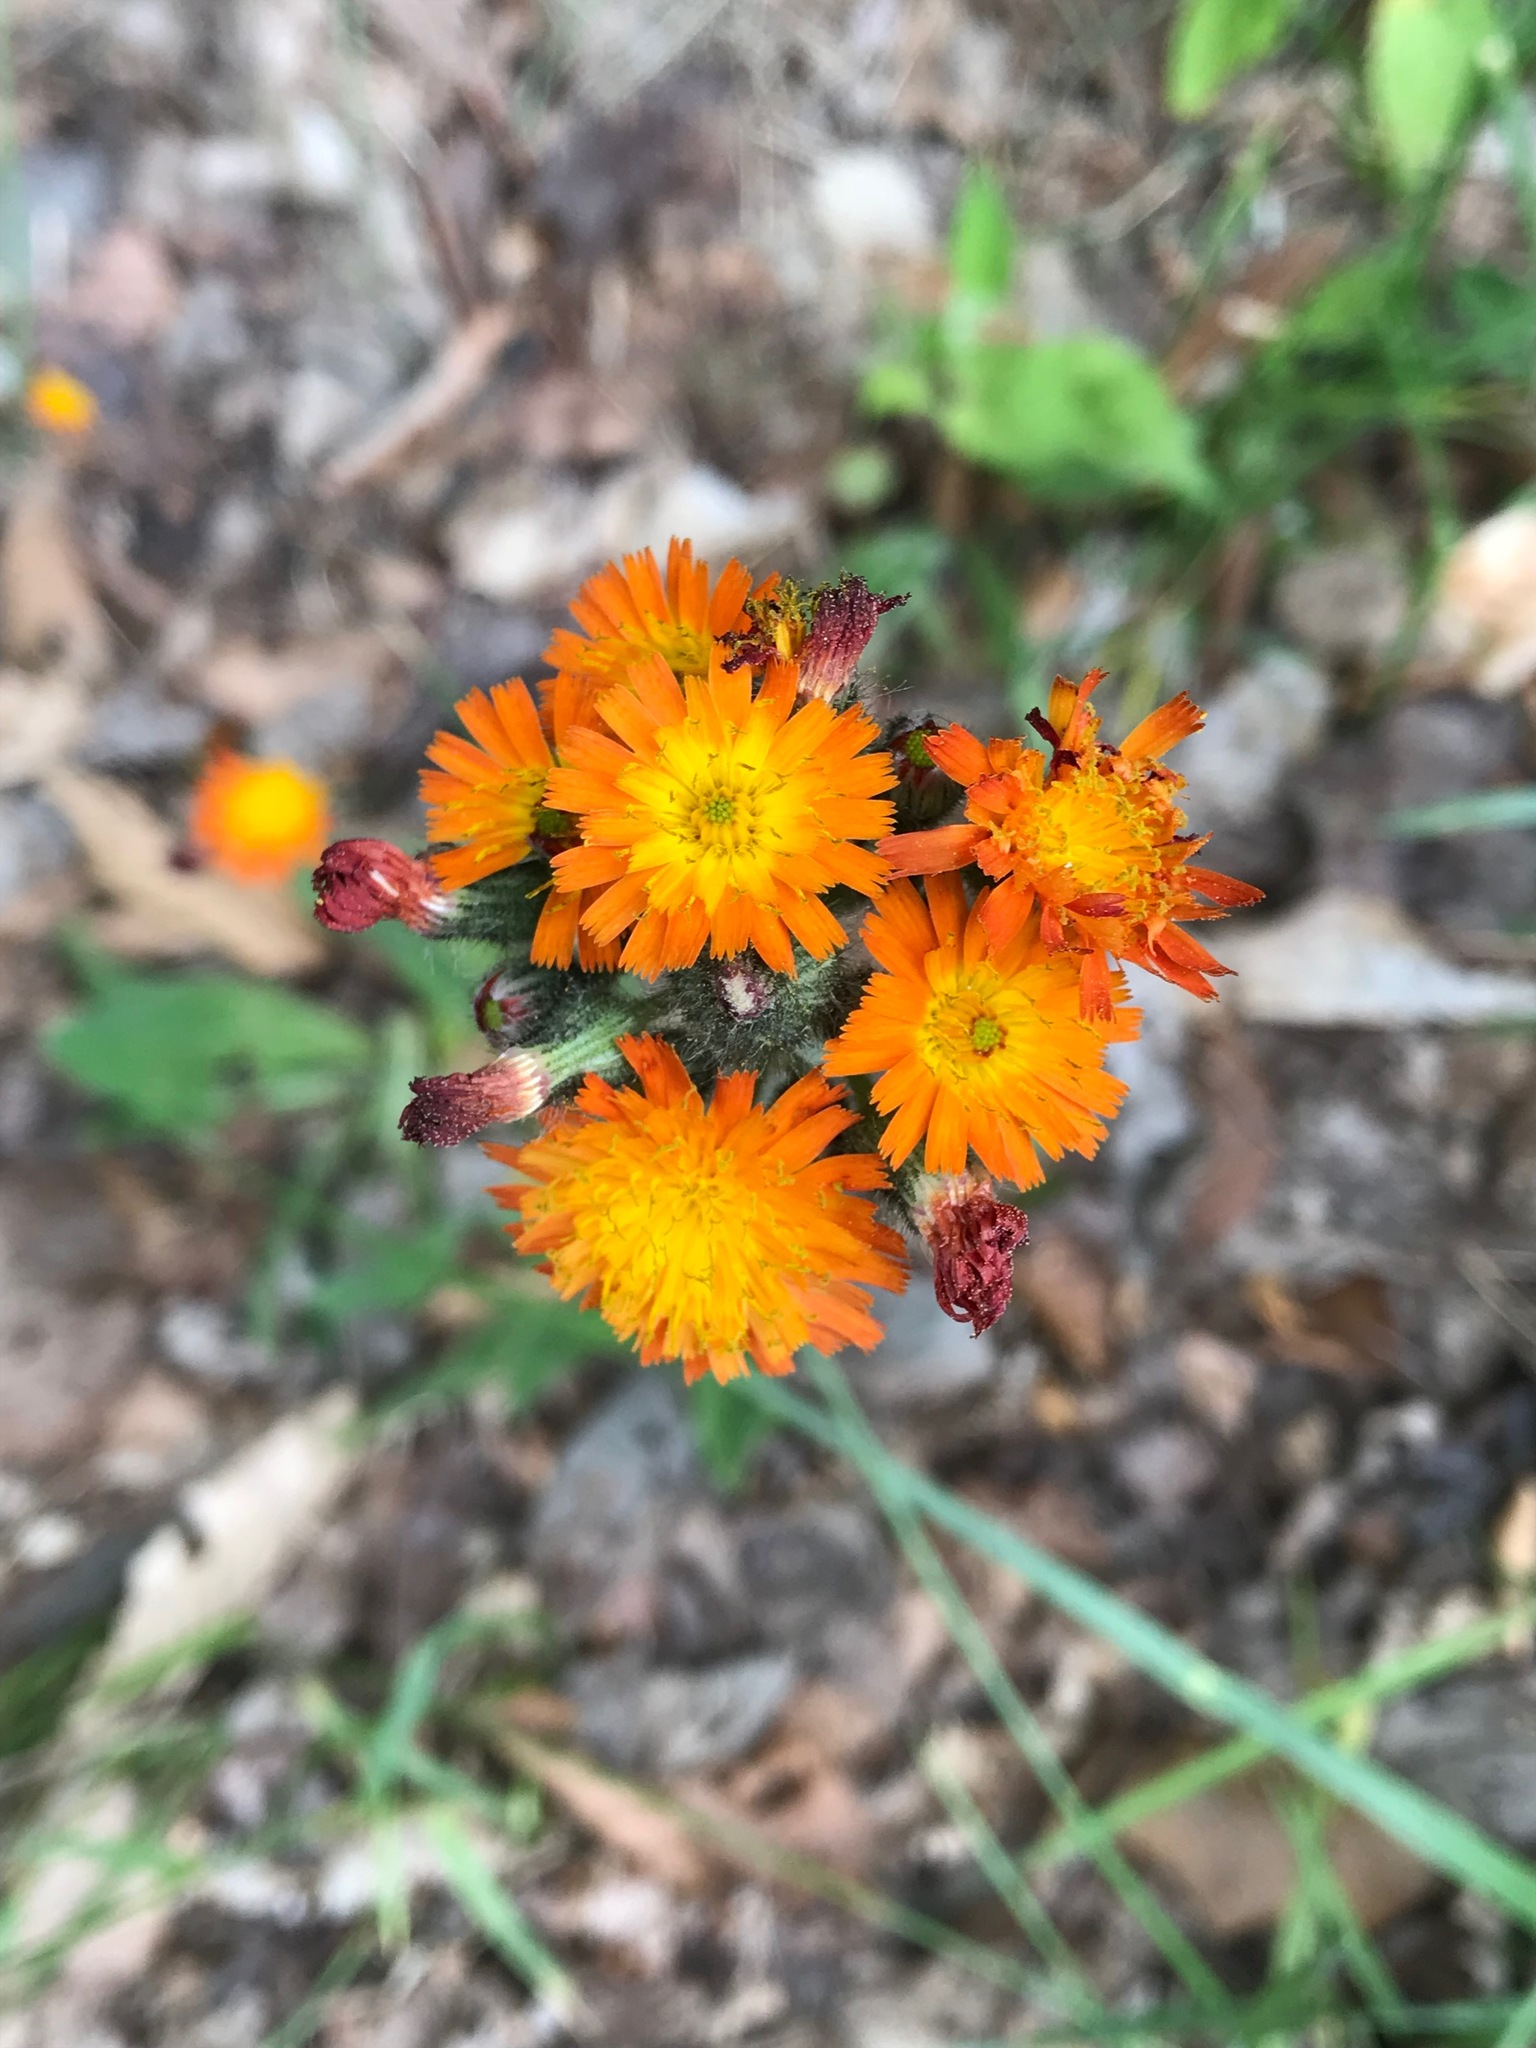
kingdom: Plantae
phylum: Tracheophyta
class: Magnoliopsida
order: Asterales
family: Asteraceae
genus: Pilosella
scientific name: Pilosella aurantiaca
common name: Fox-and-cubs
